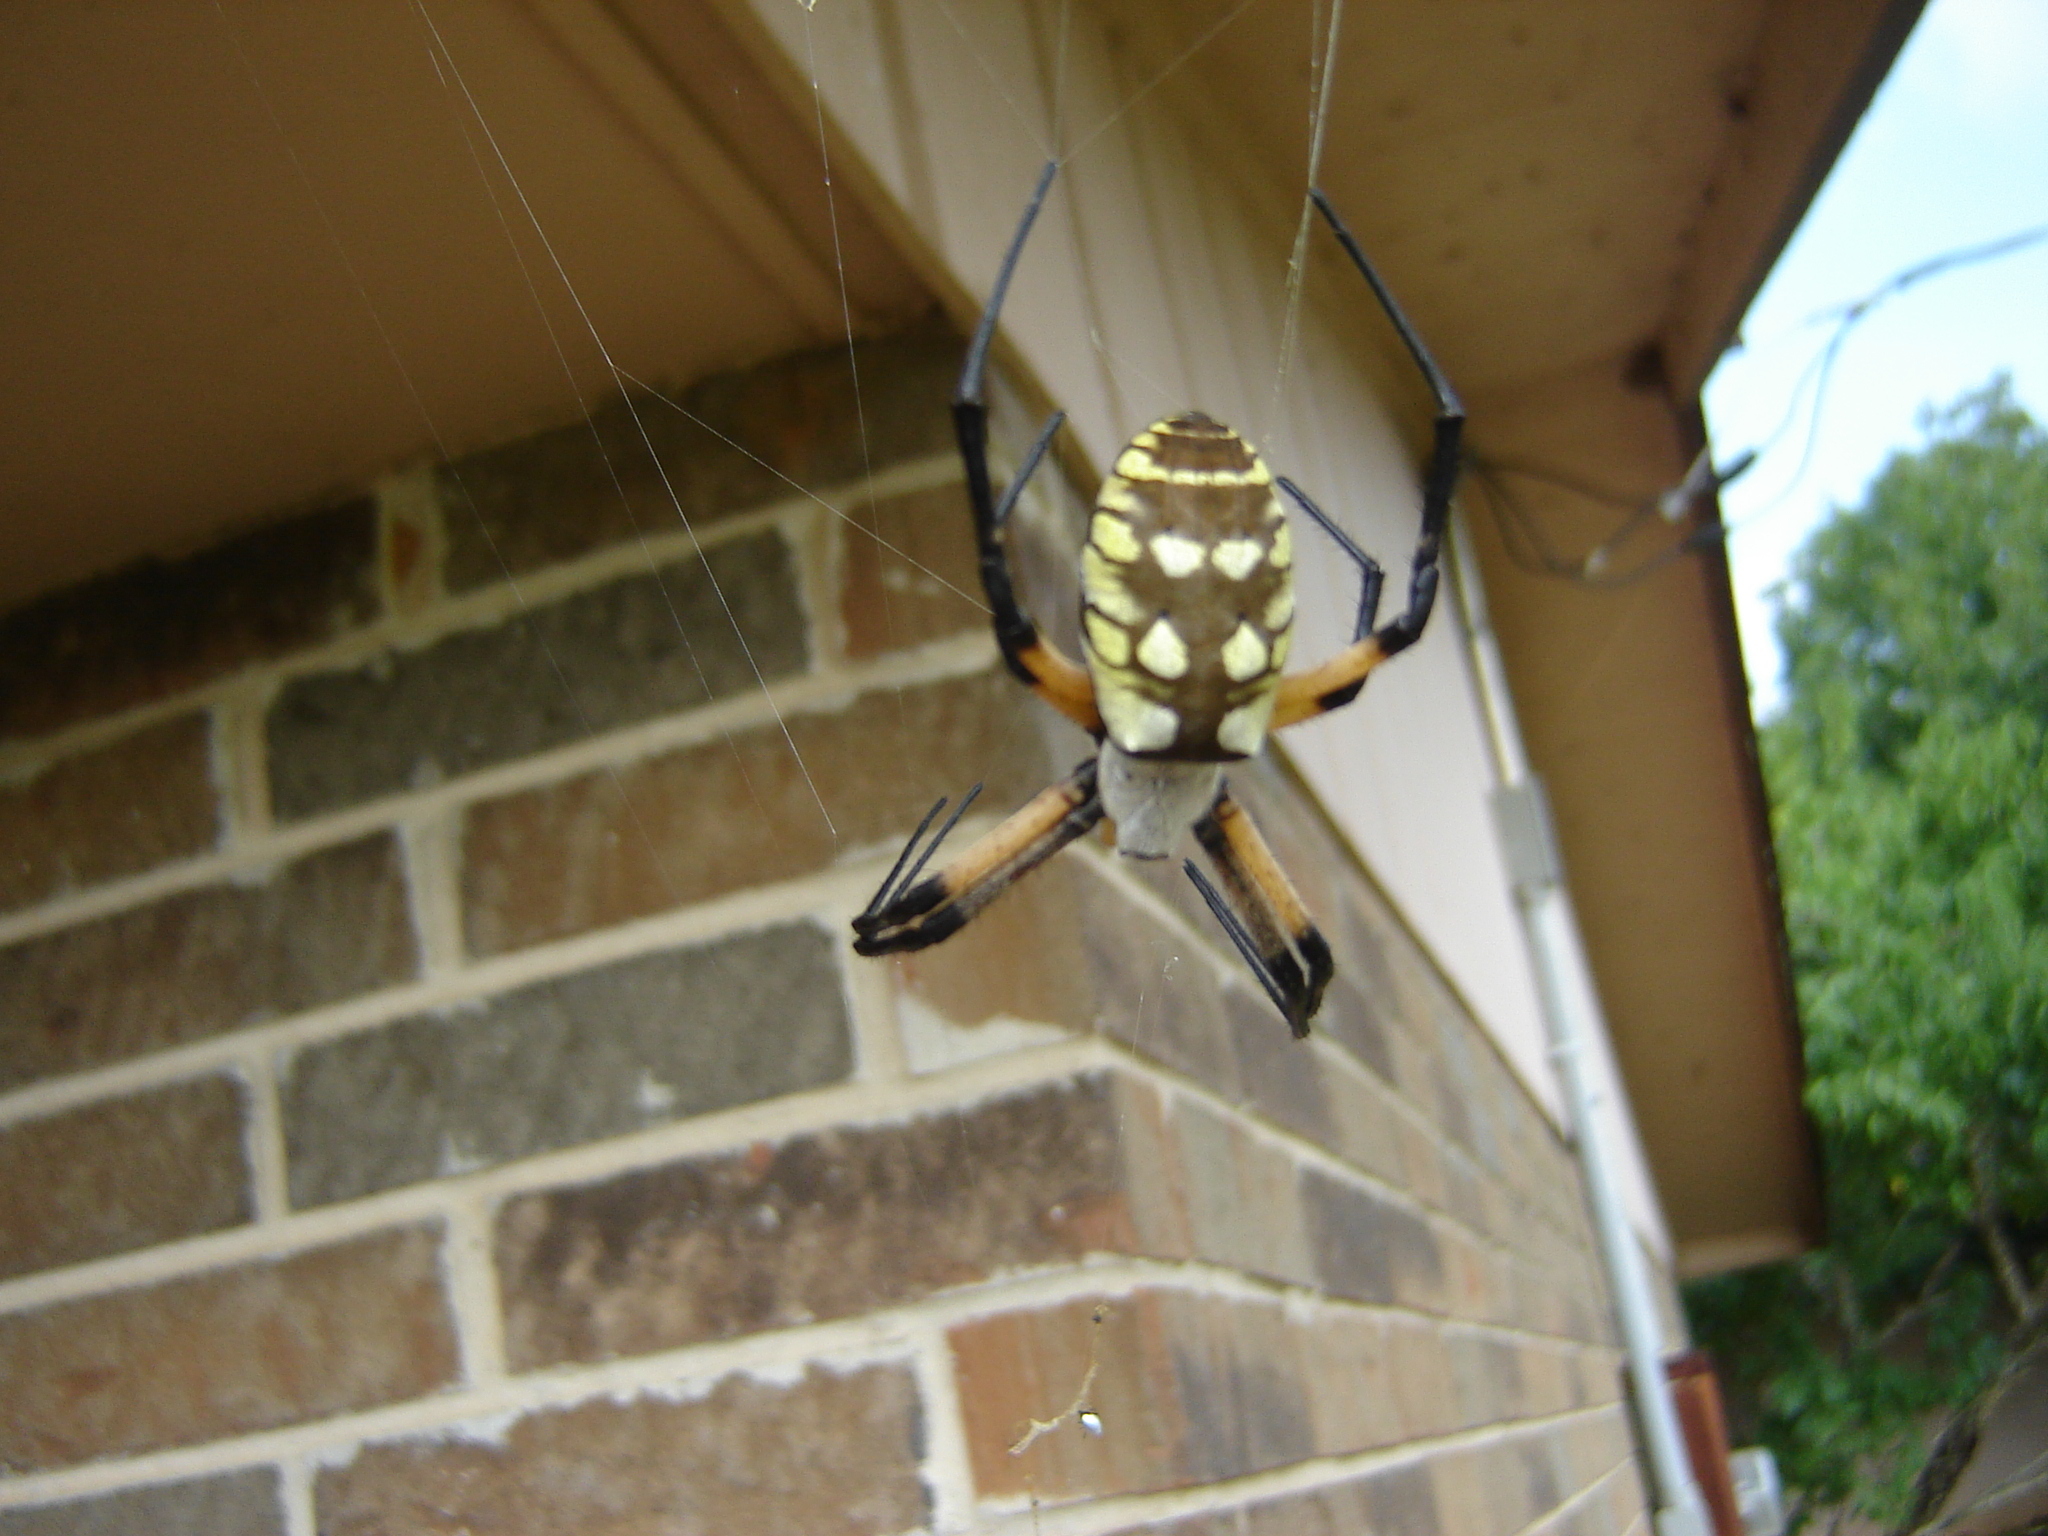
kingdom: Animalia
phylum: Arthropoda
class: Arachnida
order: Araneae
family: Araneidae
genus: Argiope
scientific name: Argiope aurantia
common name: Orb weavers
